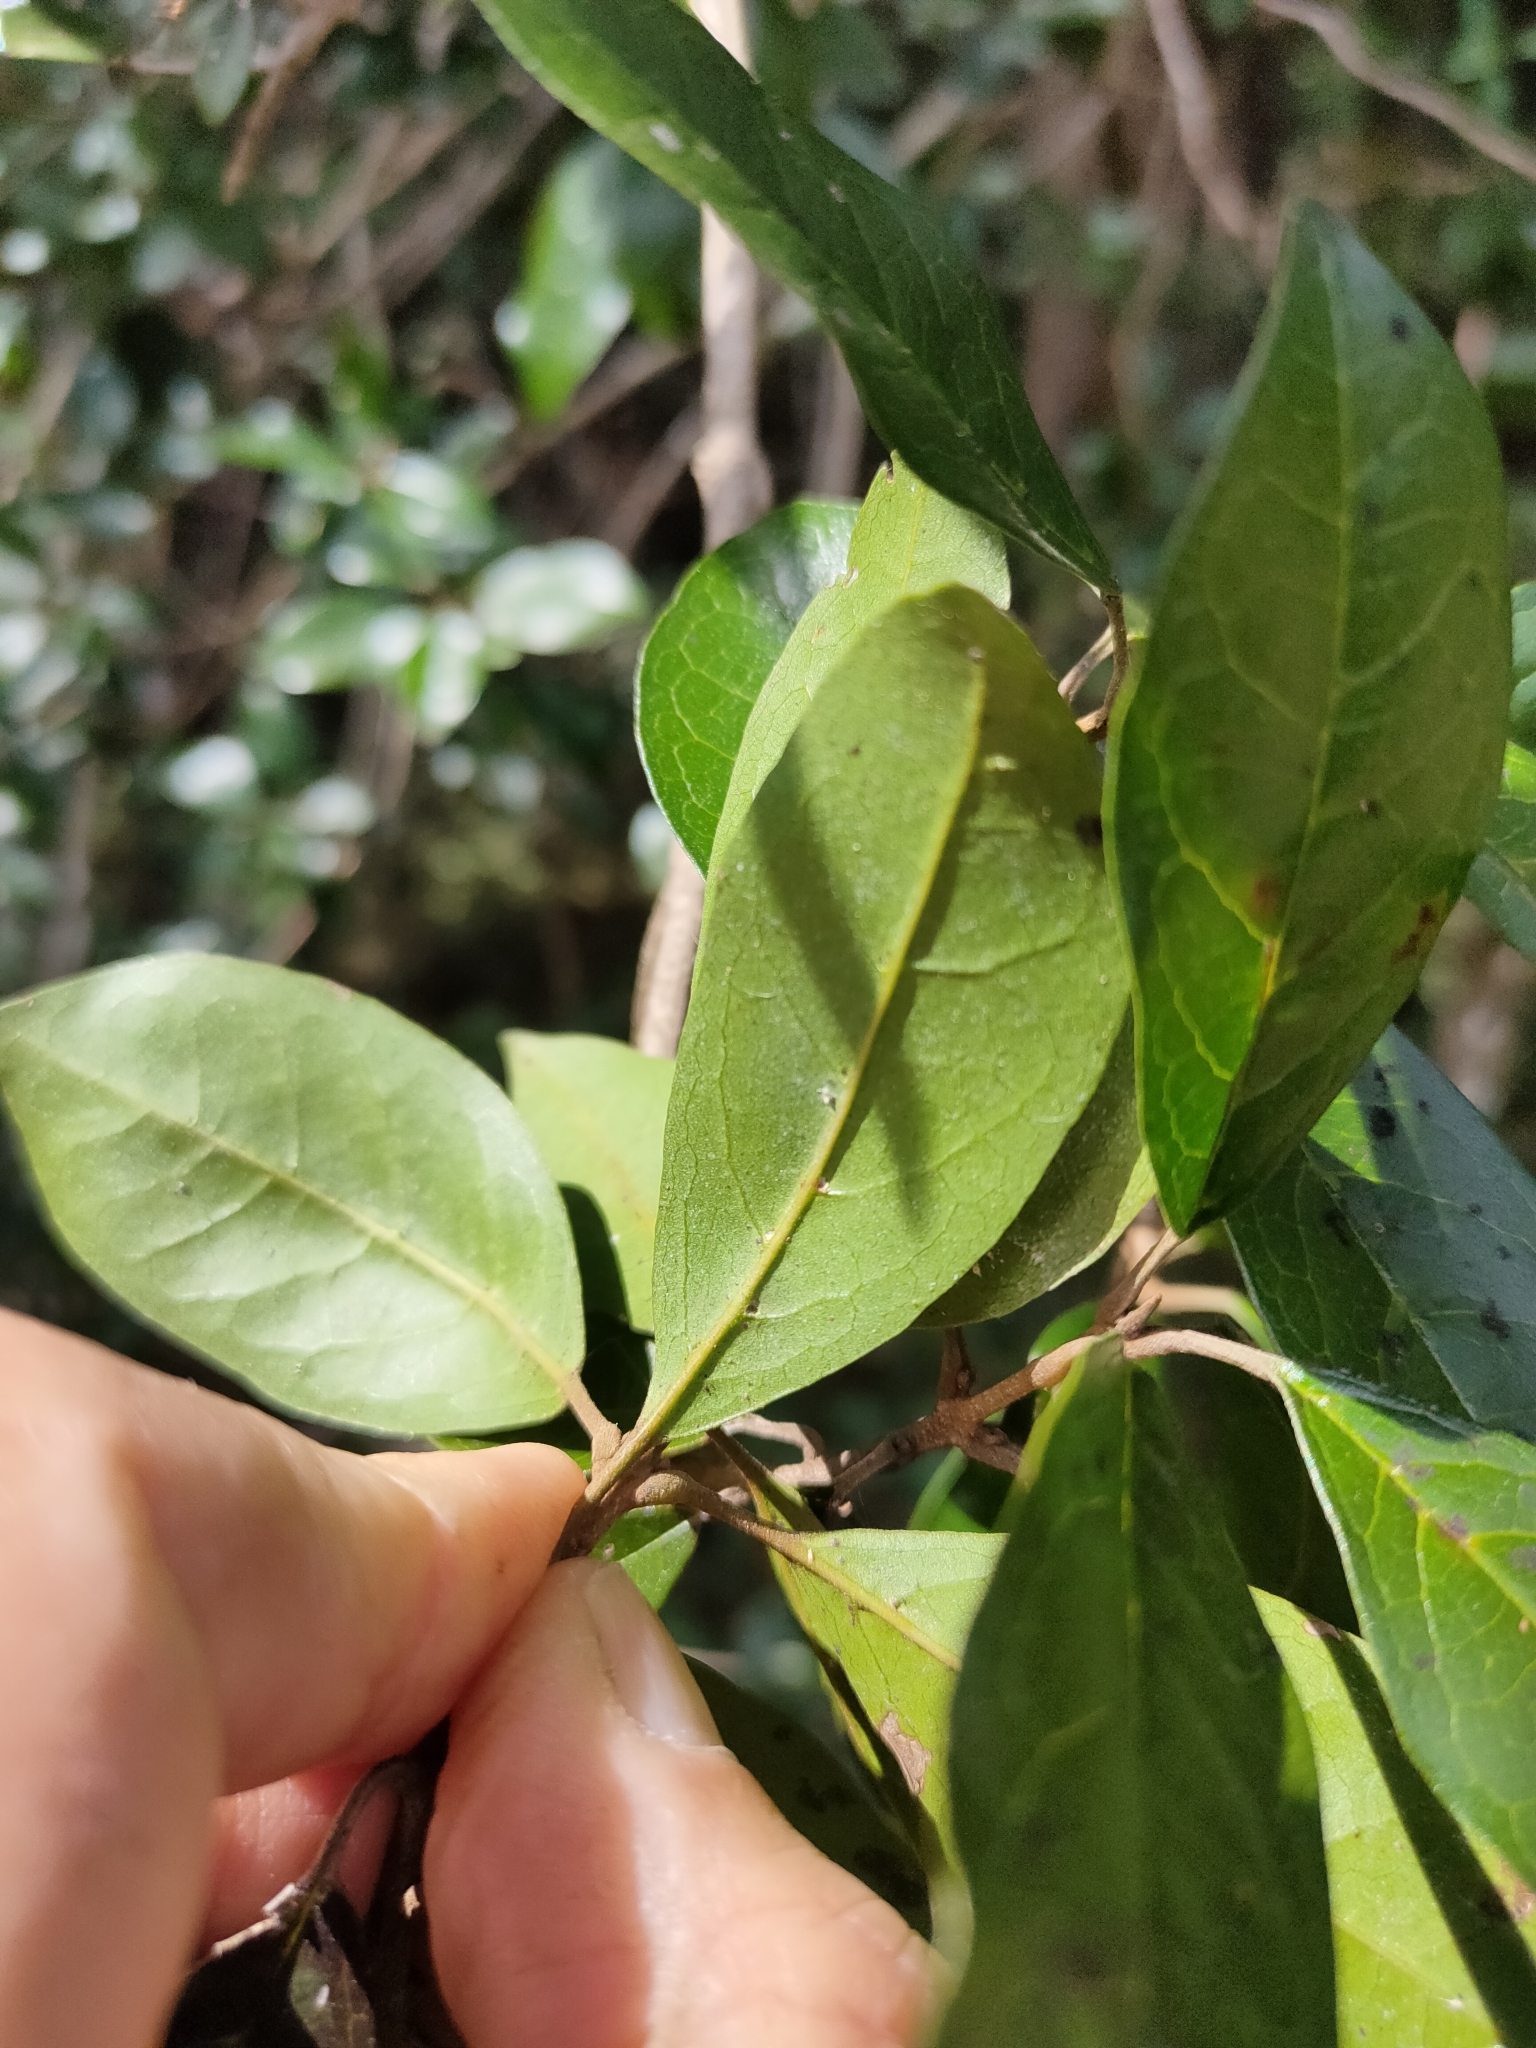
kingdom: Plantae
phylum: Tracheophyta
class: Magnoliopsida
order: Lamiales
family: Lamiaceae
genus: Vitex
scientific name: Vitex lignum-vitae
